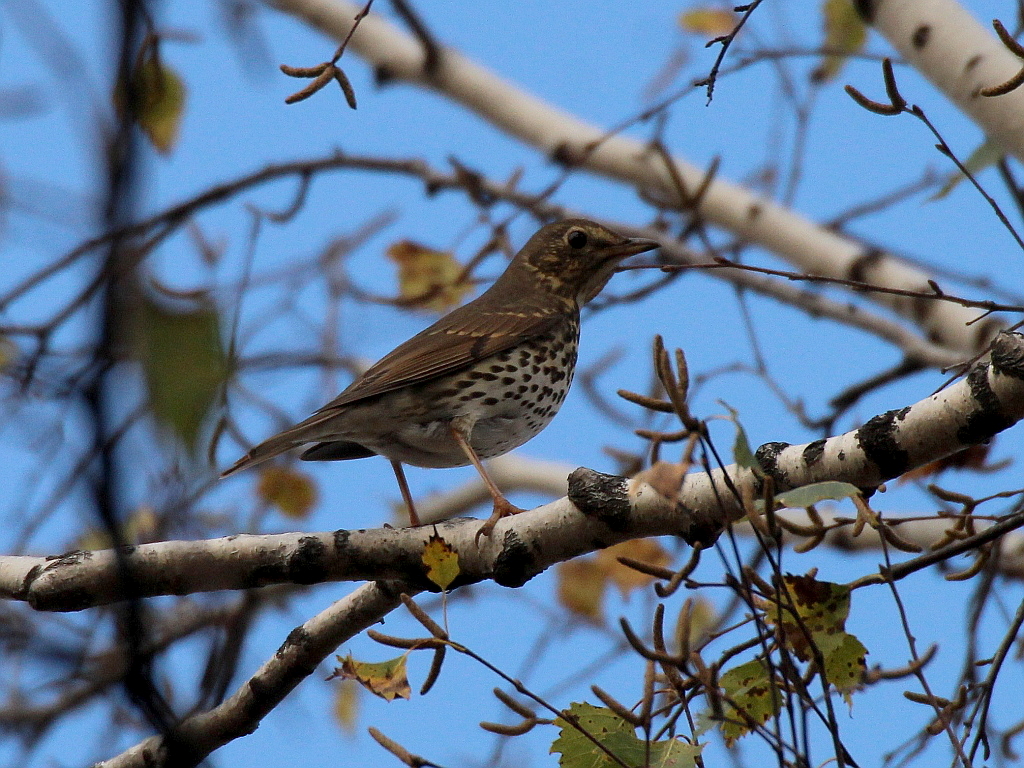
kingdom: Animalia
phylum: Chordata
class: Aves
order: Passeriformes
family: Turdidae
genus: Turdus
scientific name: Turdus philomelos
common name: Song thrush
